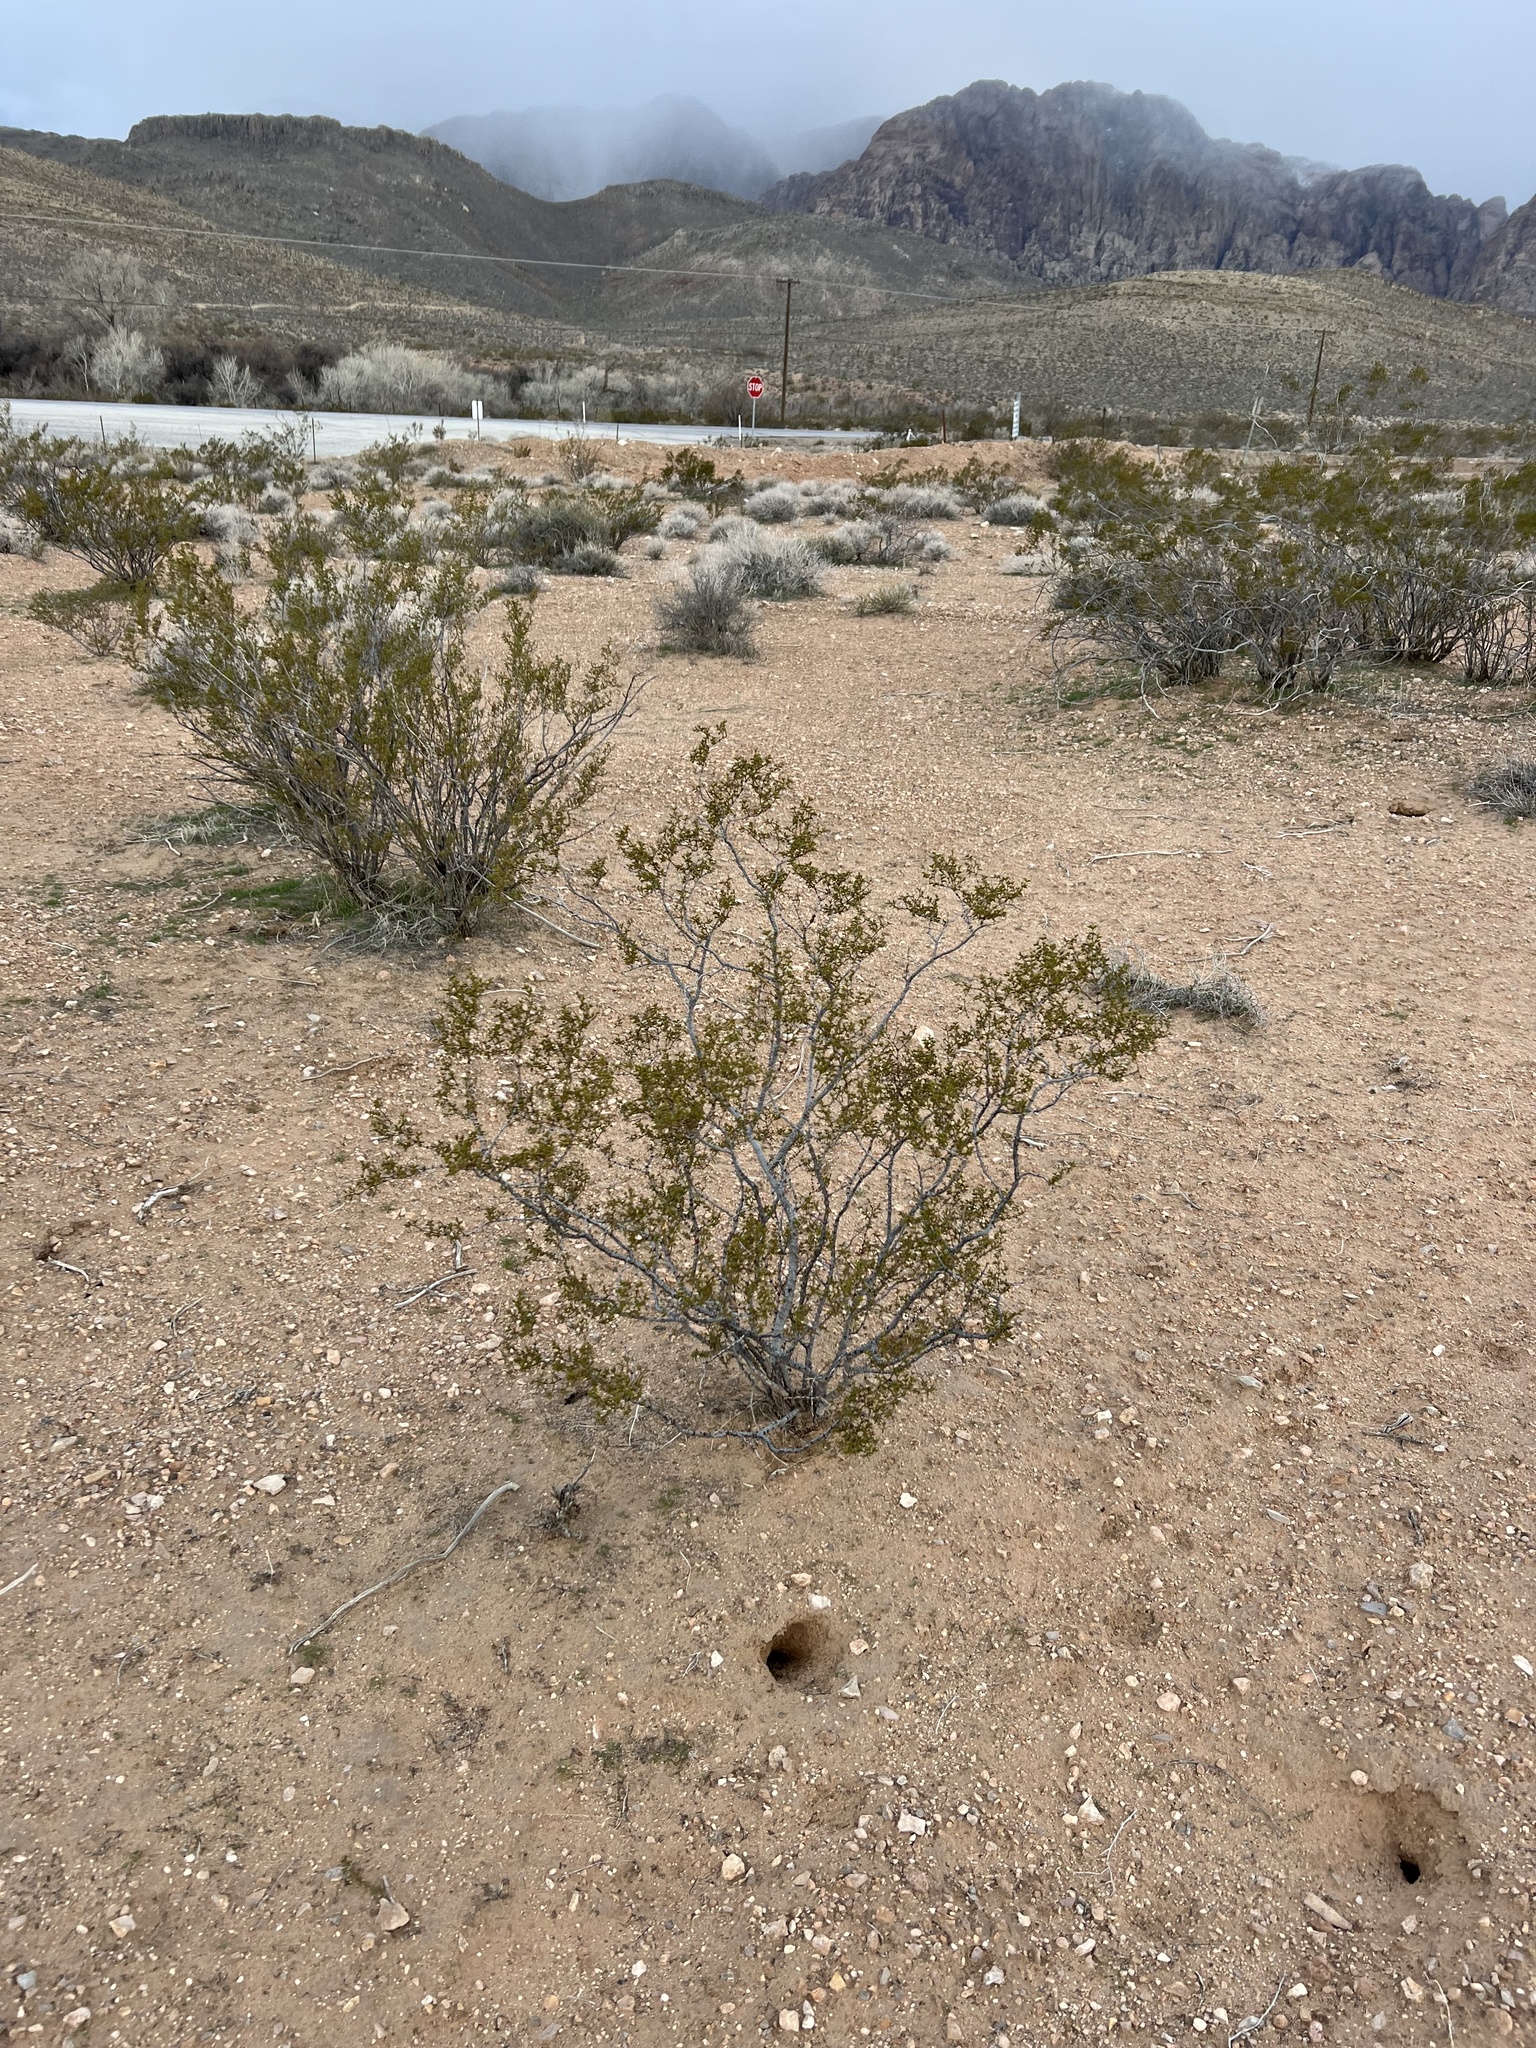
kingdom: Plantae
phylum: Tracheophyta
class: Magnoliopsida
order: Zygophyllales
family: Zygophyllaceae
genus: Larrea
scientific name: Larrea tridentata
